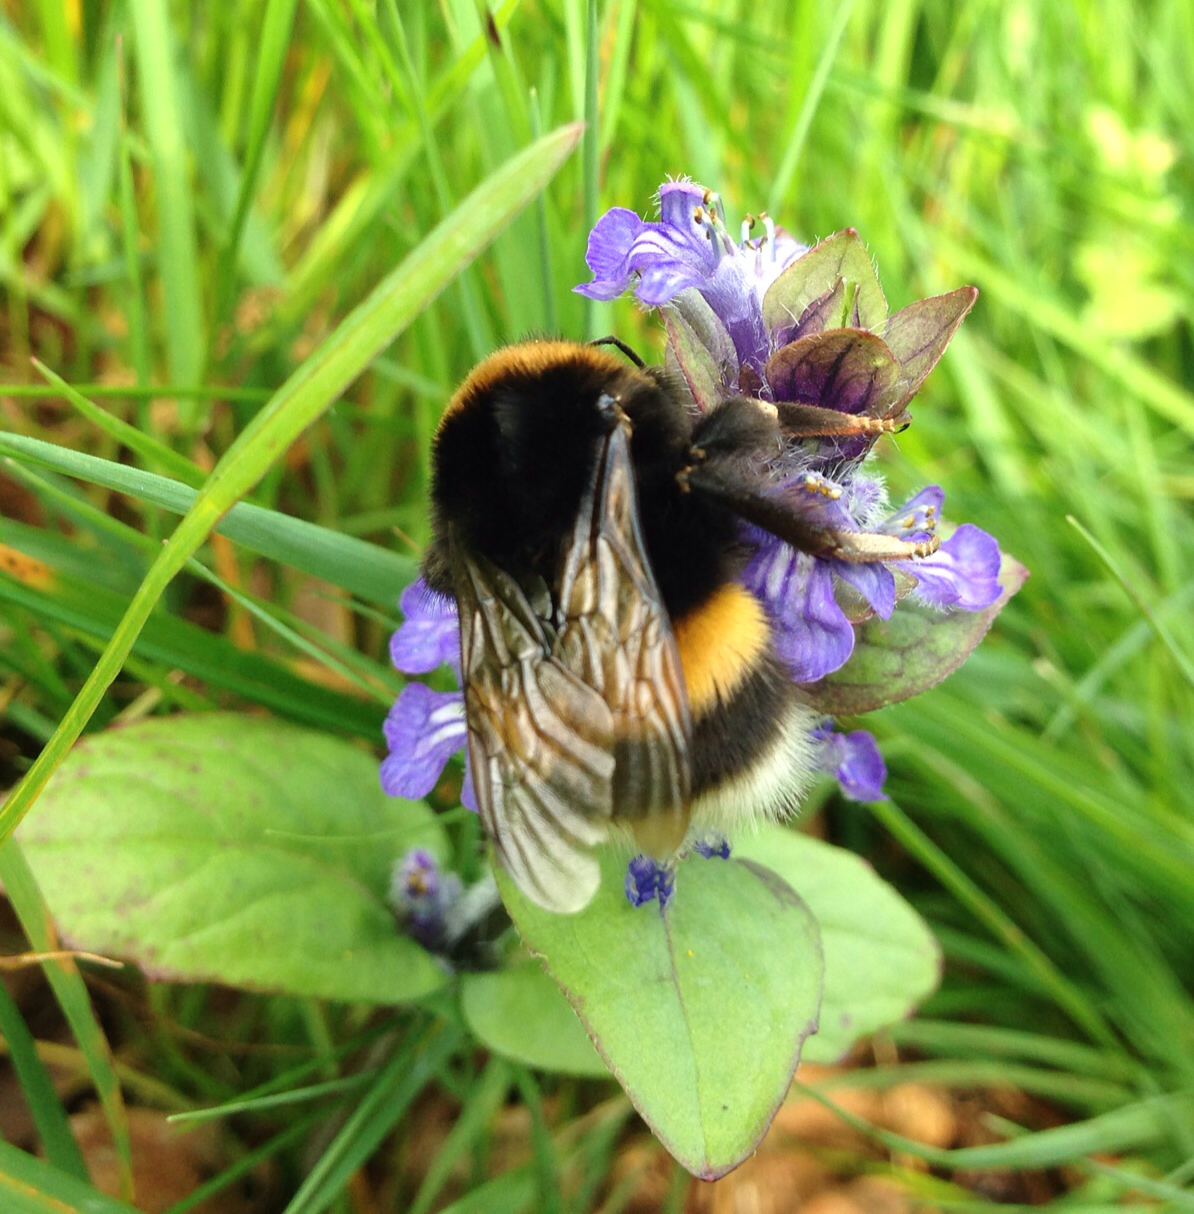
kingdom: Animalia
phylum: Arthropoda
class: Insecta
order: Hymenoptera
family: Apidae
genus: Bombus
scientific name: Bombus terrestris
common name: Buff-tailed bumblebee
